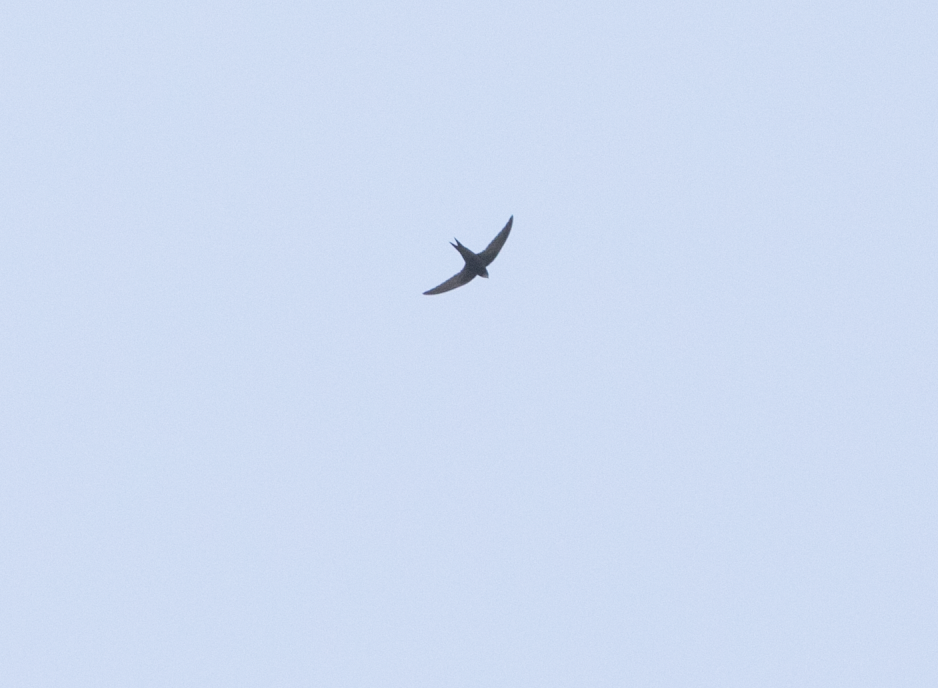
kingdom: Animalia
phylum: Chordata
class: Aves
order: Apodiformes
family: Apodidae
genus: Apus
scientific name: Apus apus
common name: Common swift
